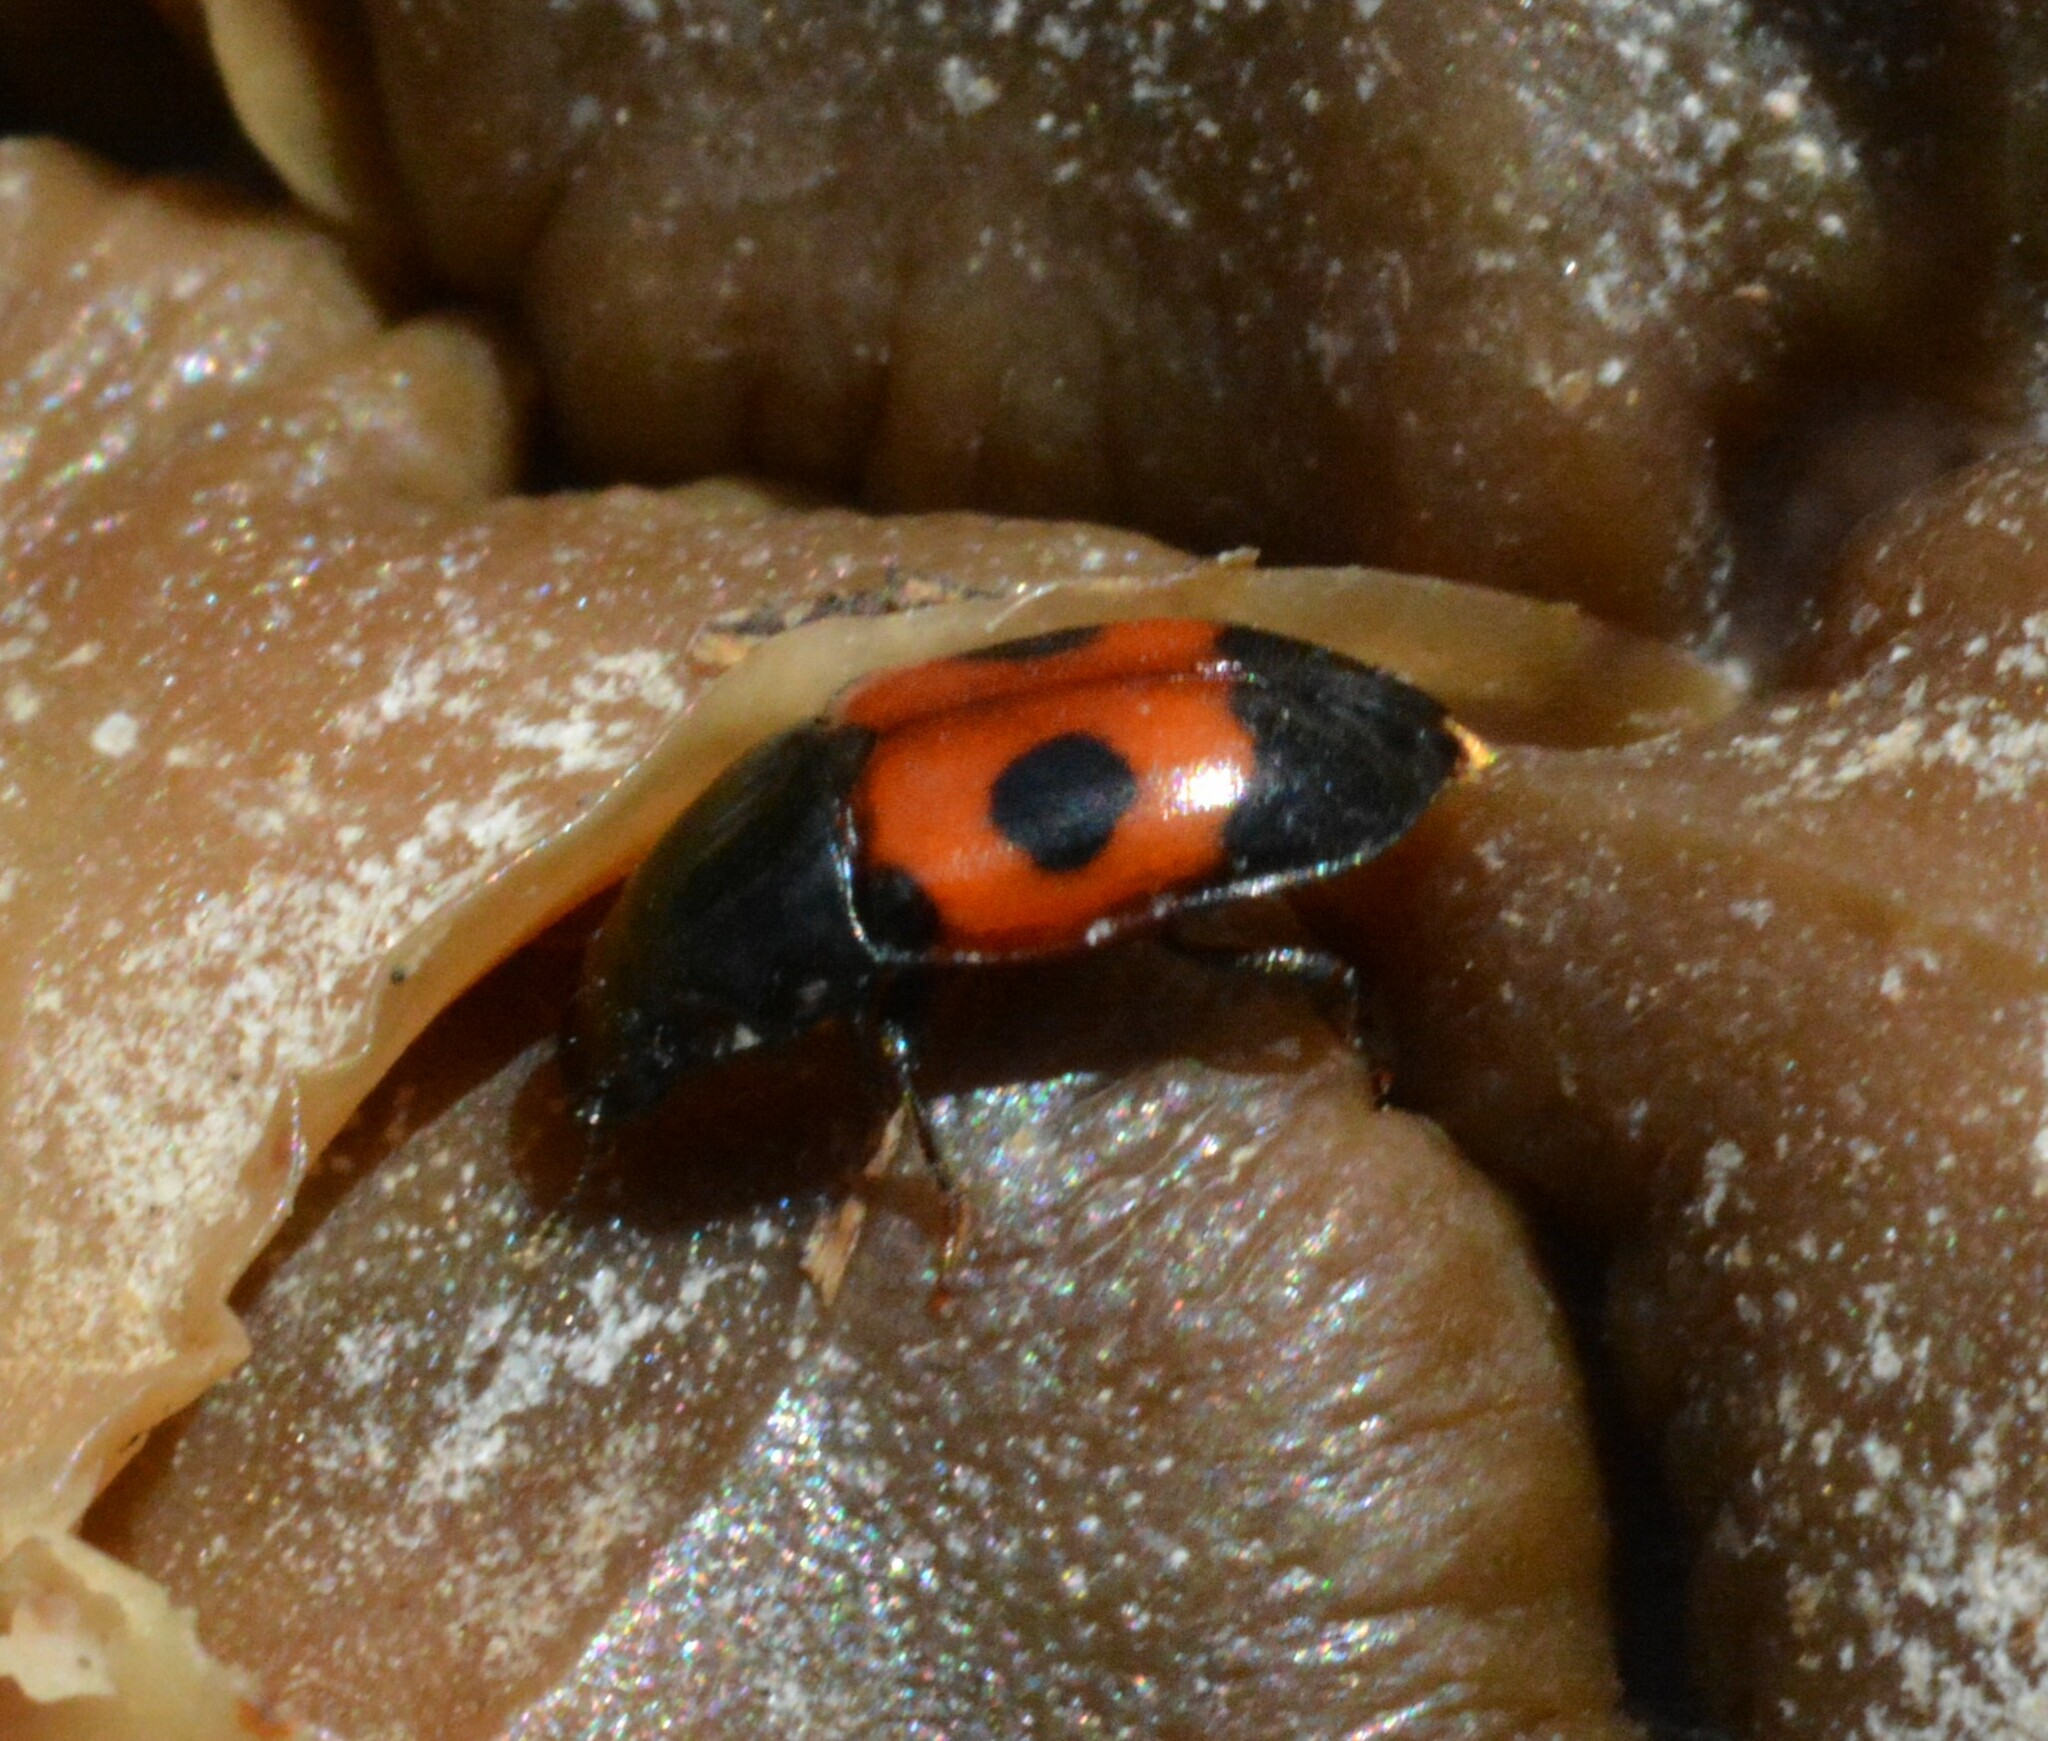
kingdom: Animalia
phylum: Arthropoda
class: Insecta
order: Coleoptera
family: Nitidulidae
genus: Glischrochilus
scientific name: Glischrochilus sanguinolentus
